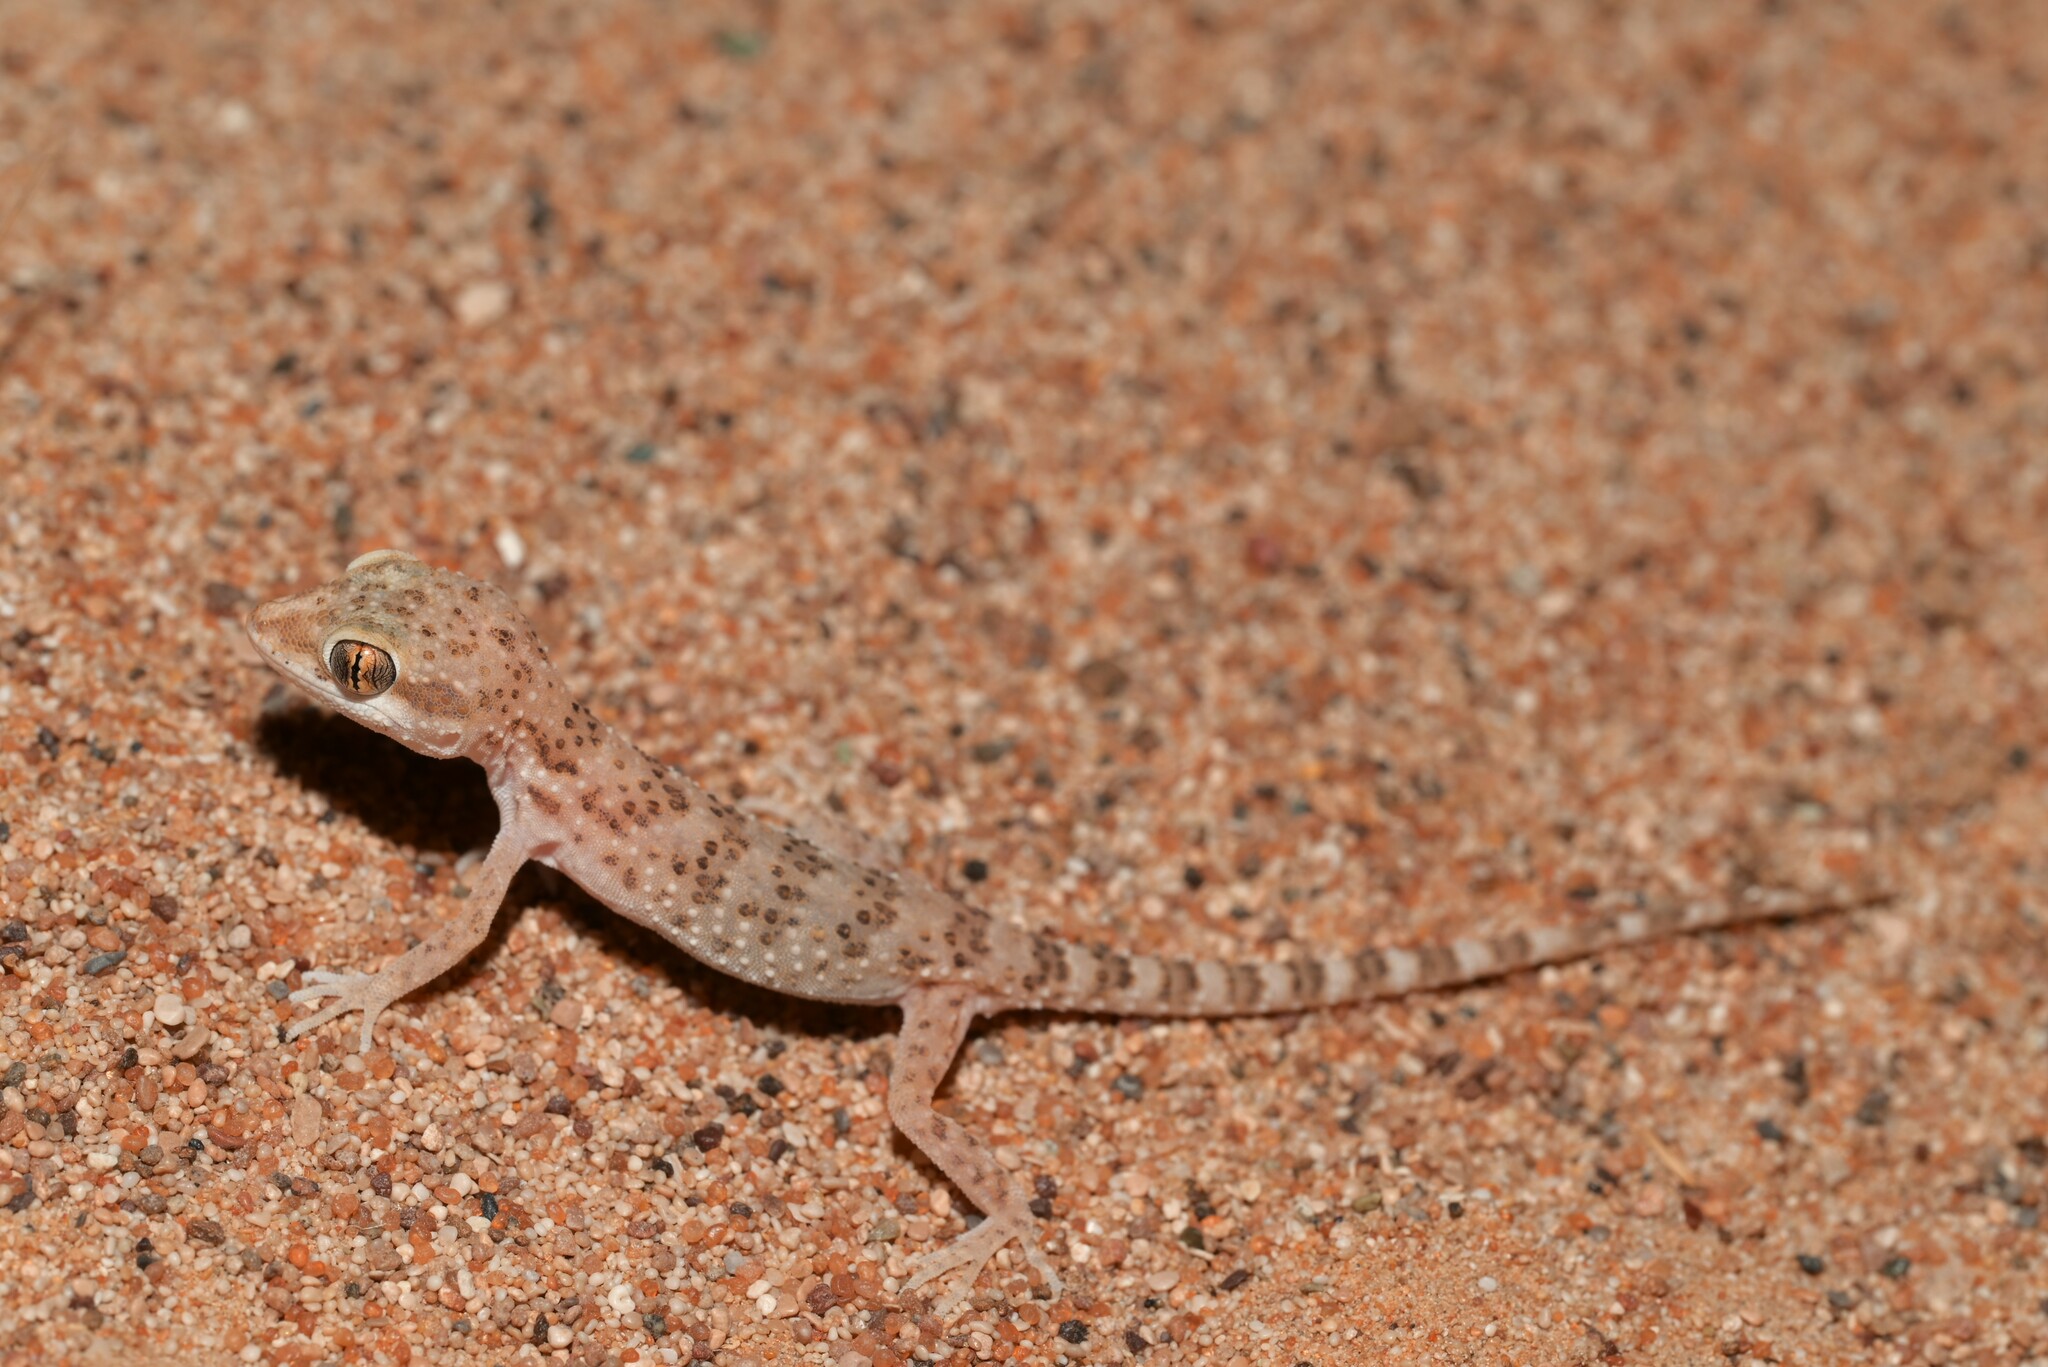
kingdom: Animalia
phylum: Chordata
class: Squamata
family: Gekkonidae
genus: Bunopus
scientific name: Bunopus tuberculatus
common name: Southern tuberculated gecko
